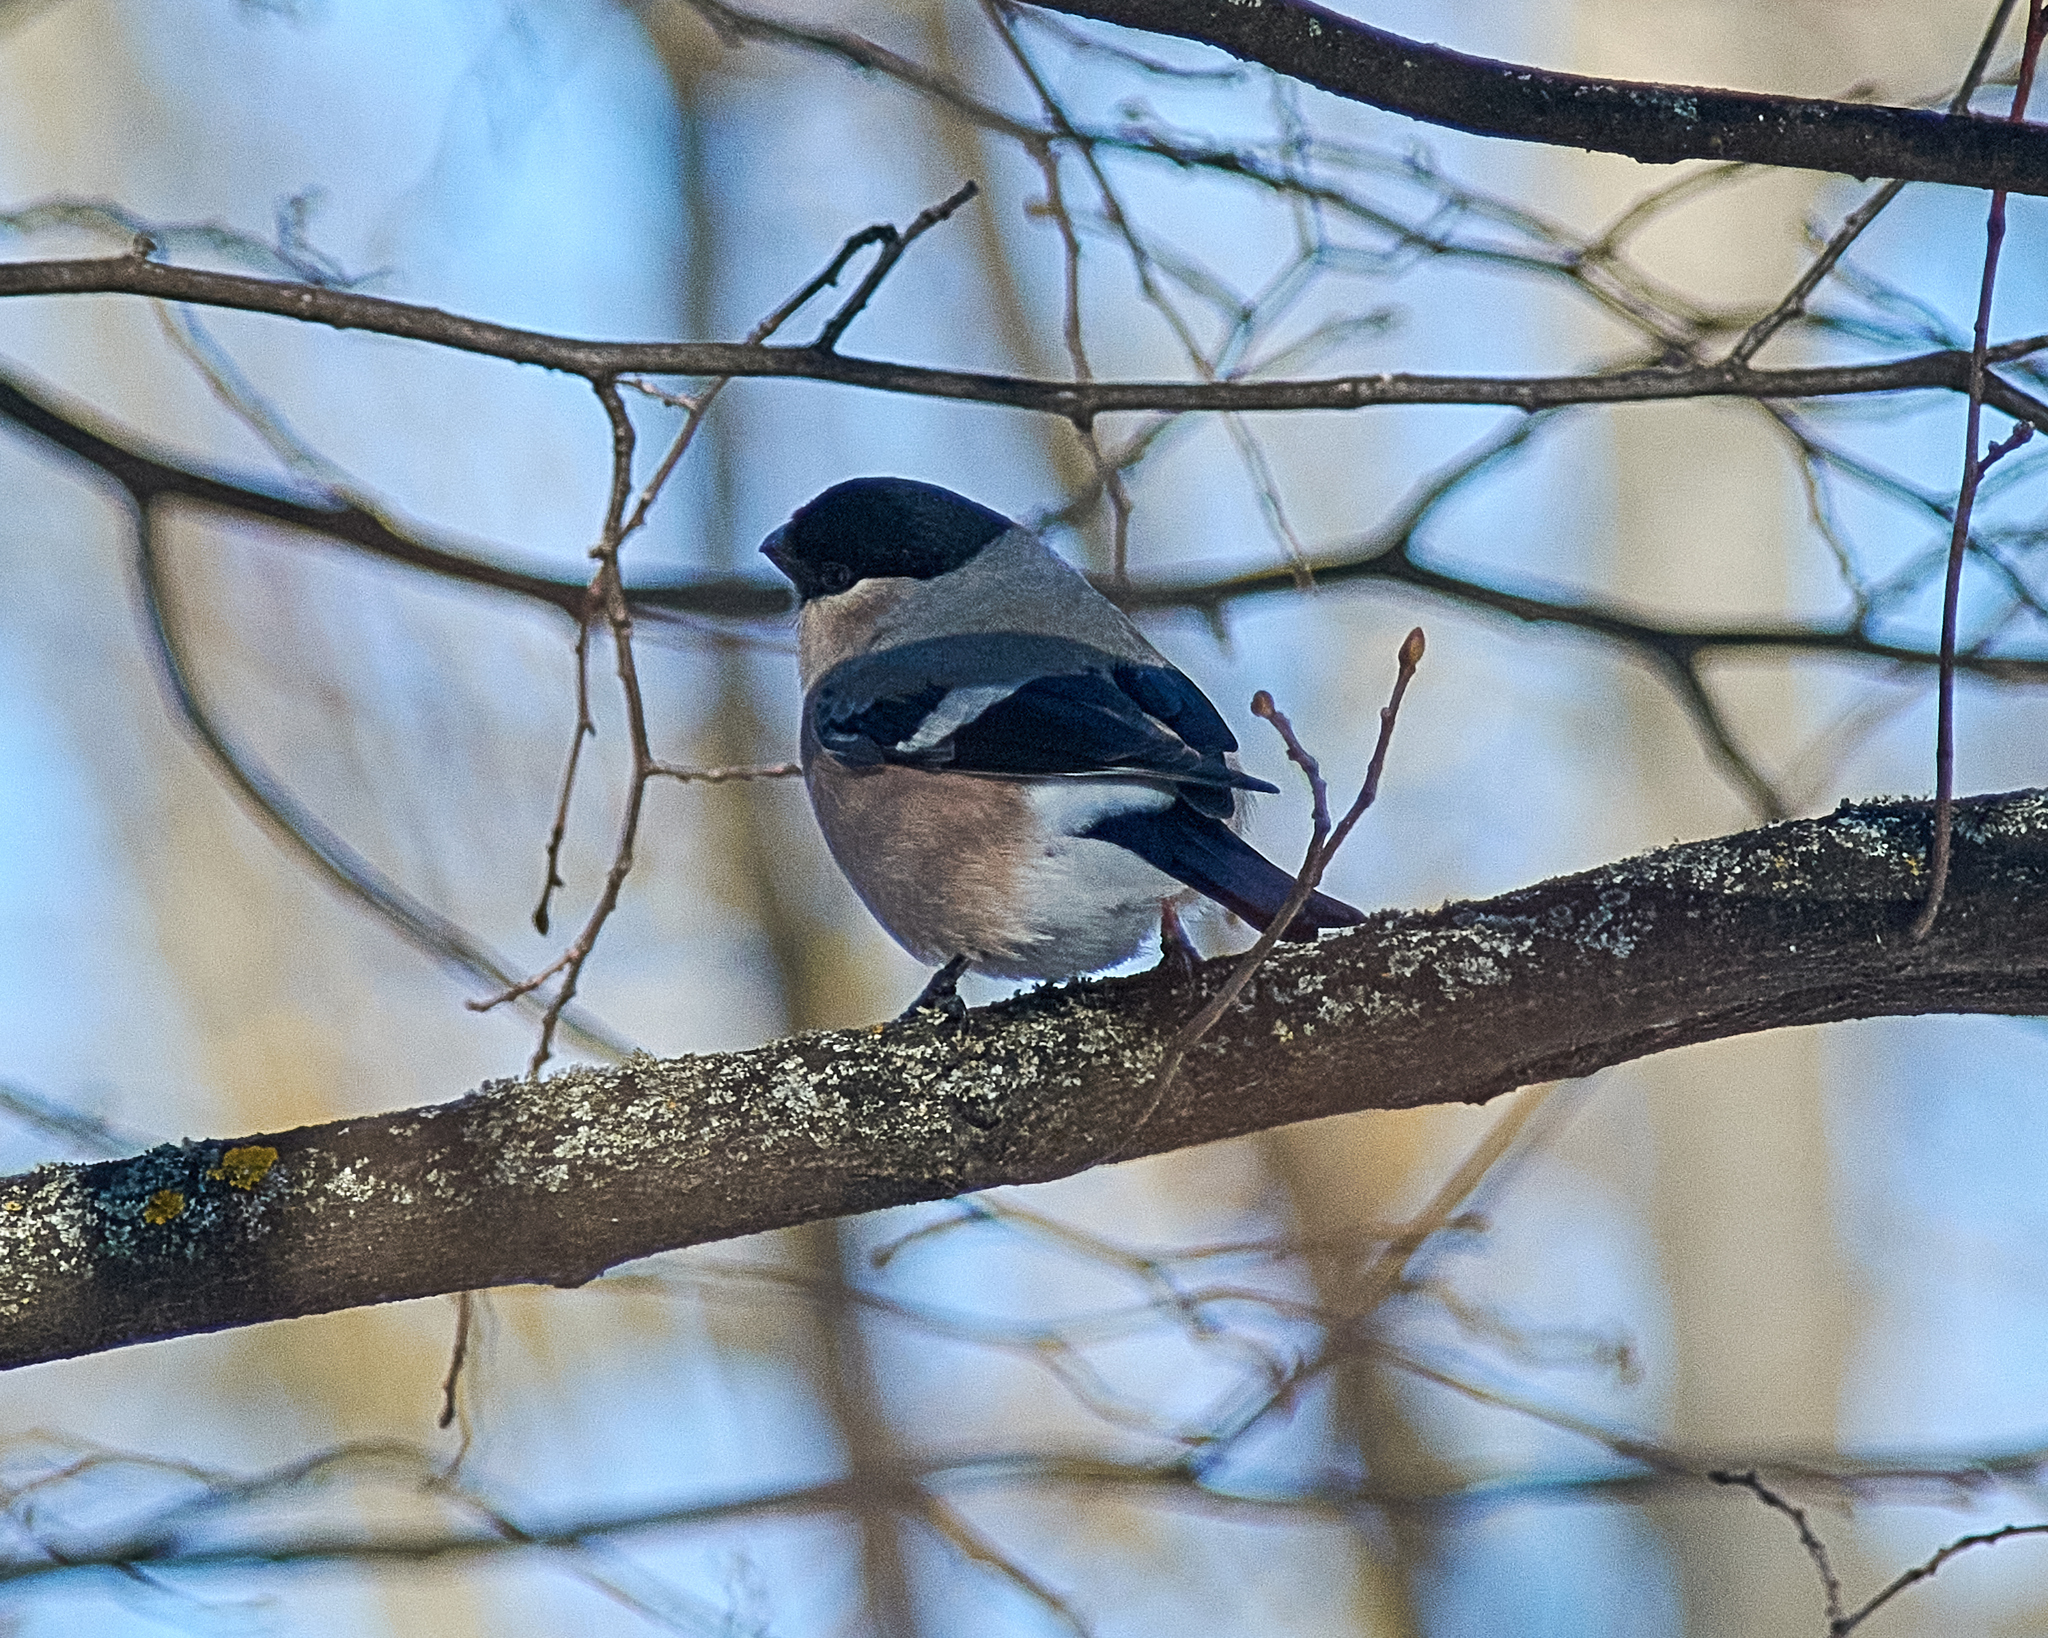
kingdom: Animalia
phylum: Chordata
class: Aves
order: Passeriformes
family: Fringillidae
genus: Pyrrhula
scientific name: Pyrrhula pyrrhula
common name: Eurasian bullfinch
